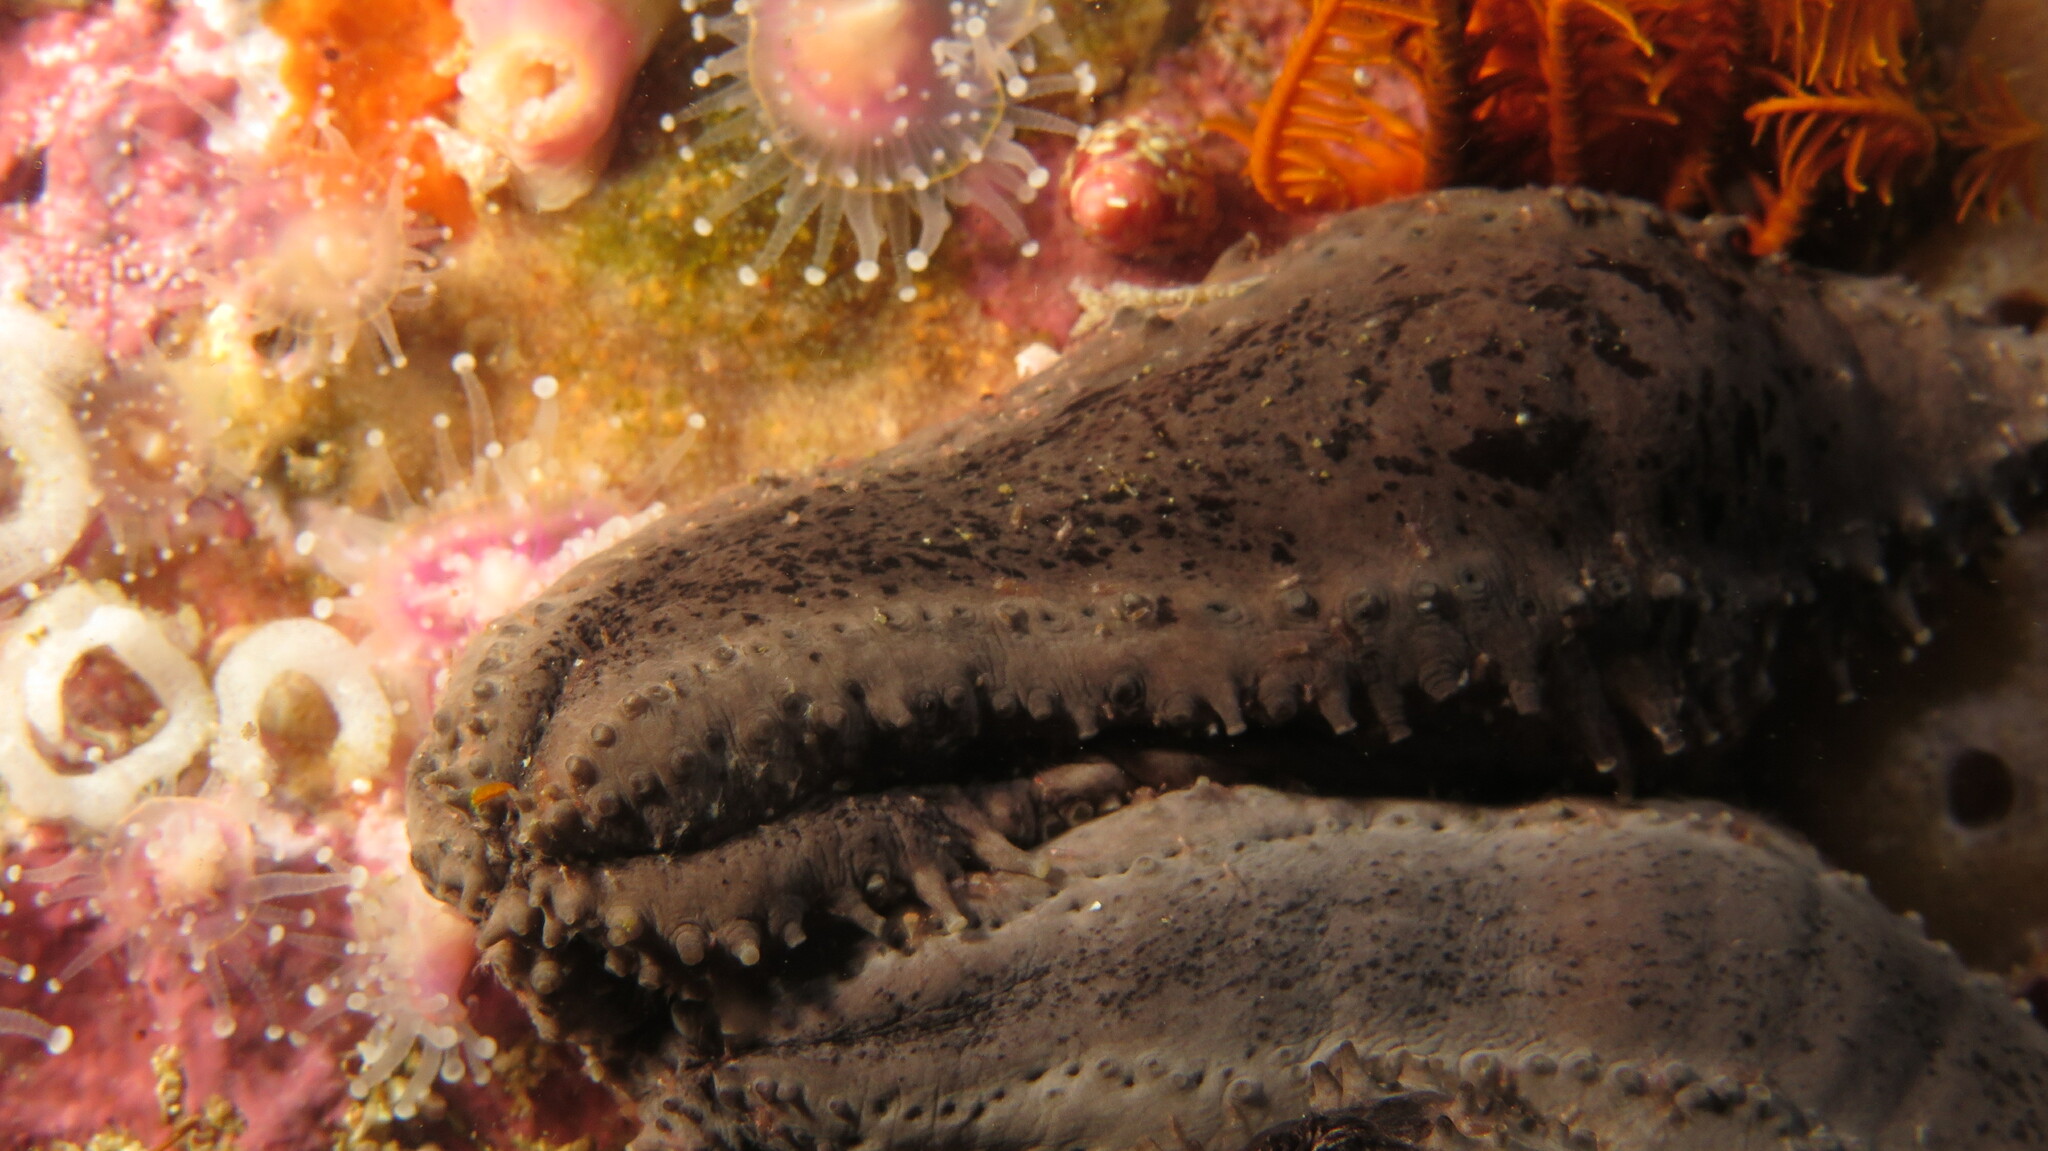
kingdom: Animalia
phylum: Echinodermata
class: Holothuroidea
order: Dendrochirotida
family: Cucumariidae
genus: Pentacta
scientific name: Pentacta doliolum
